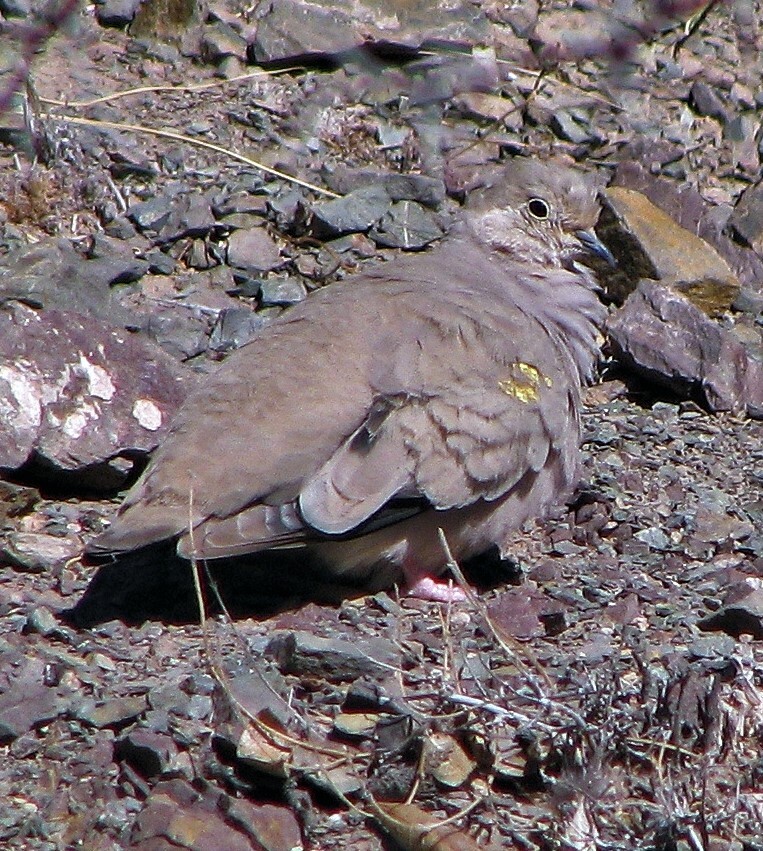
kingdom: Animalia
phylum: Chordata
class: Aves
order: Columbiformes
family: Columbidae
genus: Metriopelia
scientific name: Metriopelia aymara
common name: Golden-spotted ground dove
